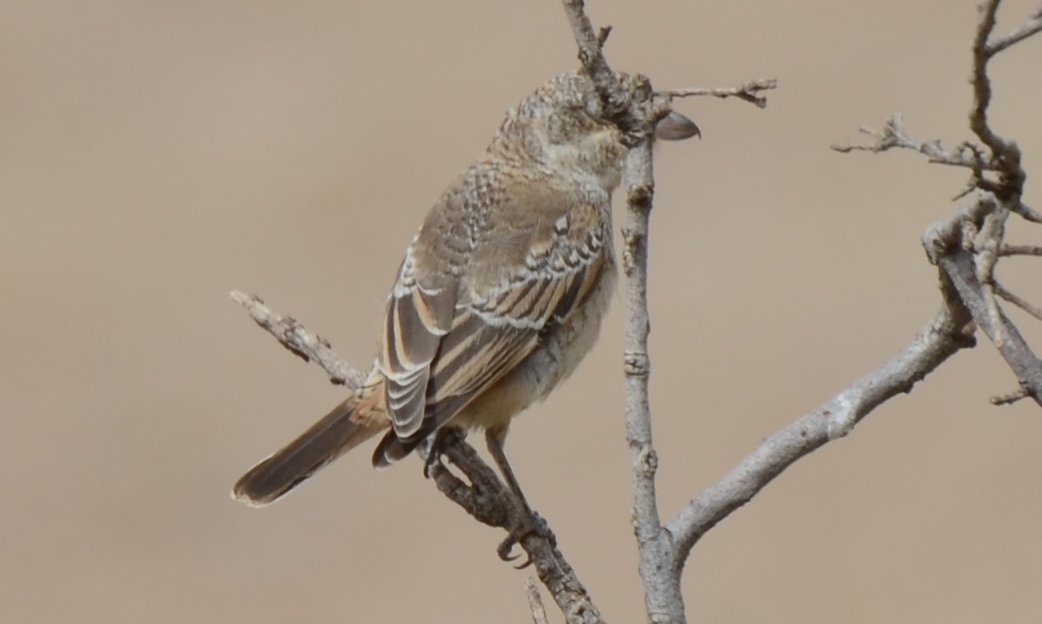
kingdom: Animalia
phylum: Chordata
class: Aves
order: Passeriformes
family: Laniidae
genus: Lanius
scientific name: Lanius senator
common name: Woodchat shrike
